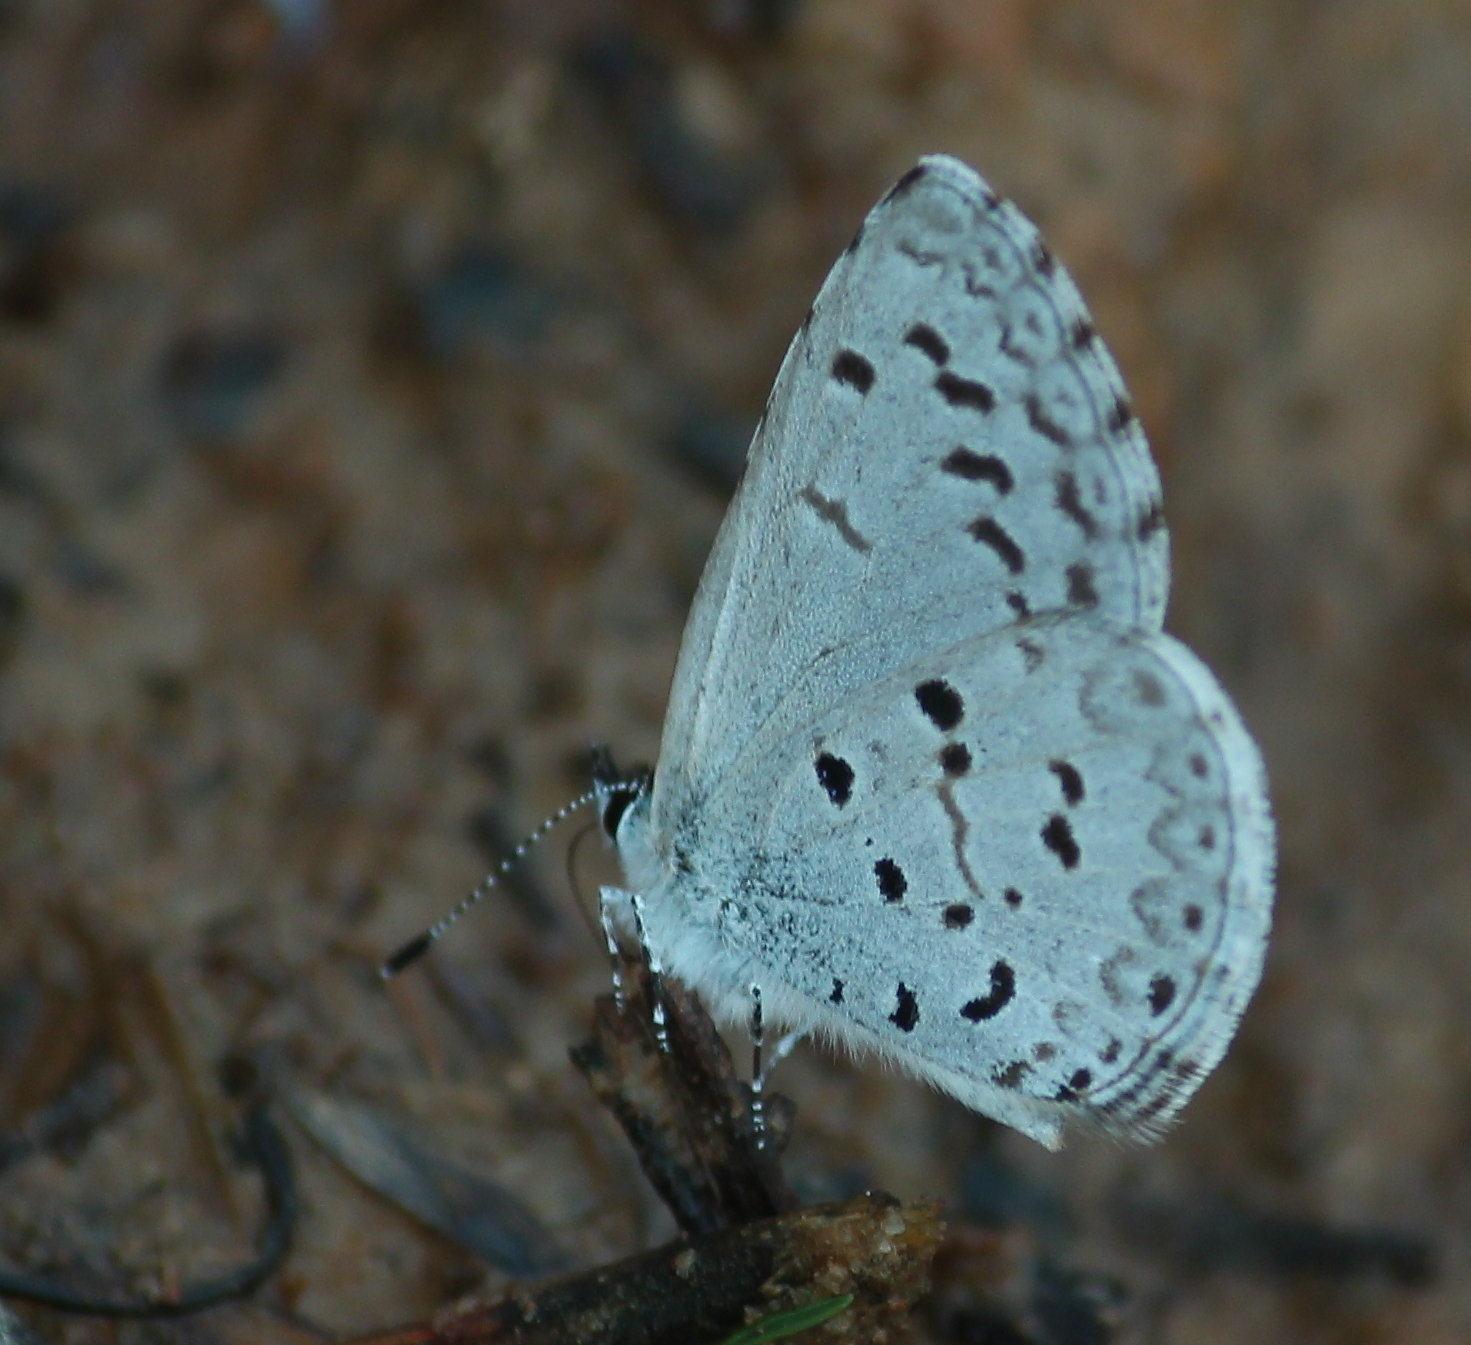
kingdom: Animalia
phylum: Arthropoda
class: Insecta
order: Lepidoptera
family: Lycaenidae
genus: Celastrina
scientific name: Celastrina ladon
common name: Spring azure
